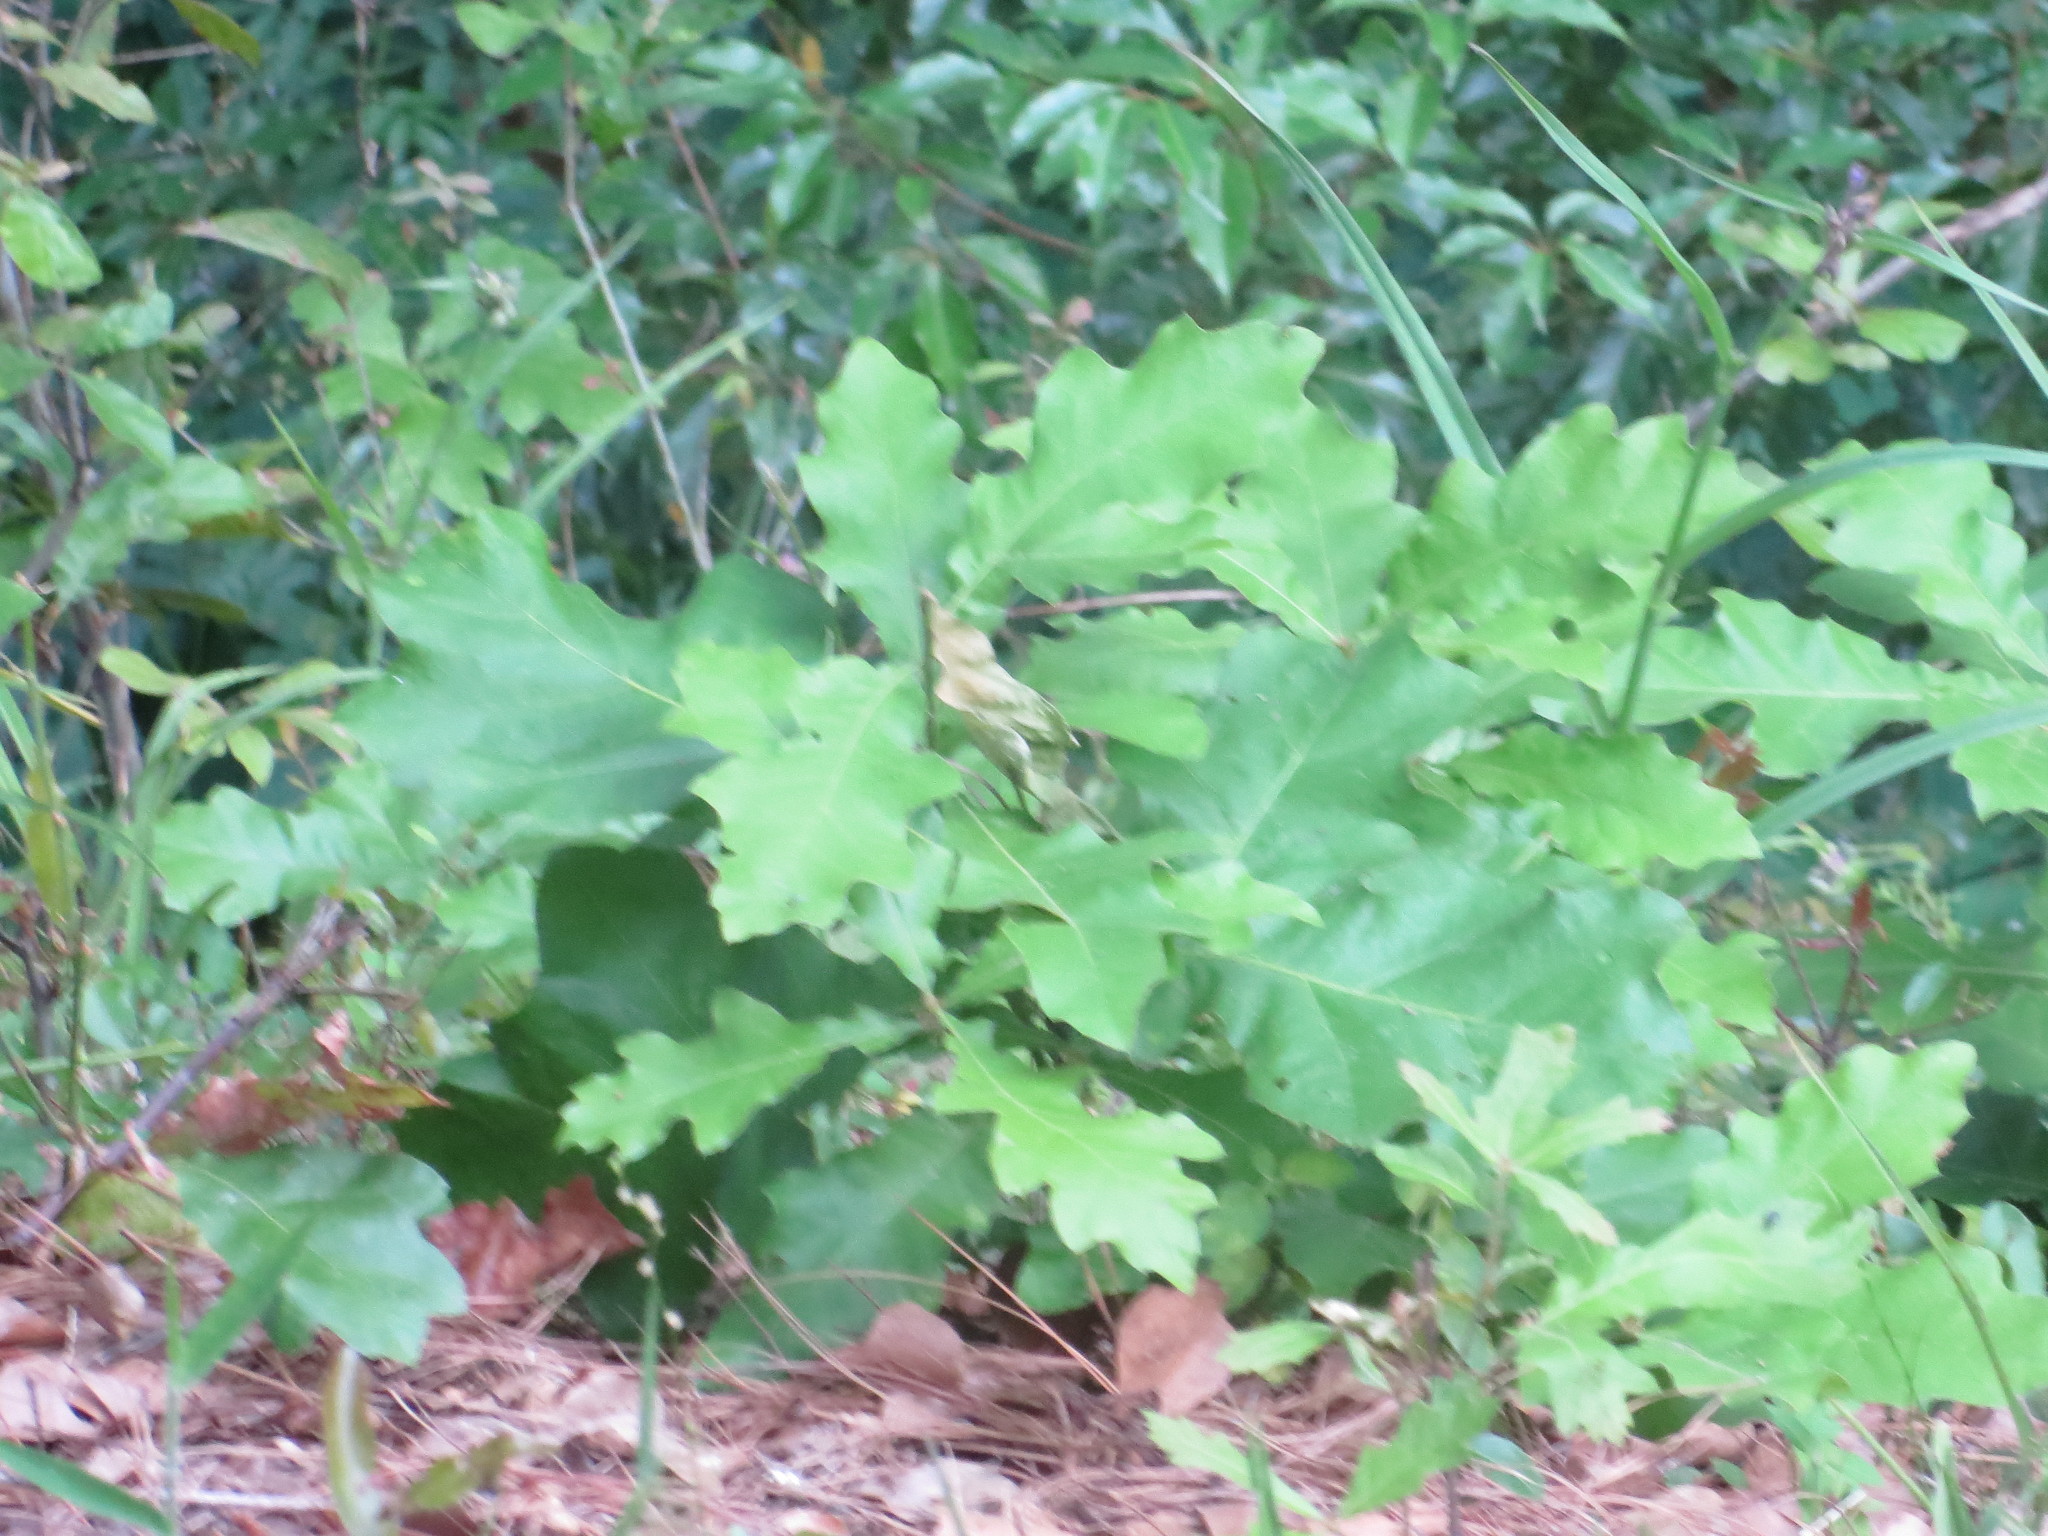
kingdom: Plantae
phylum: Tracheophyta
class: Magnoliopsida
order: Fagales
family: Fagaceae
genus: Quercus
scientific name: Quercus
